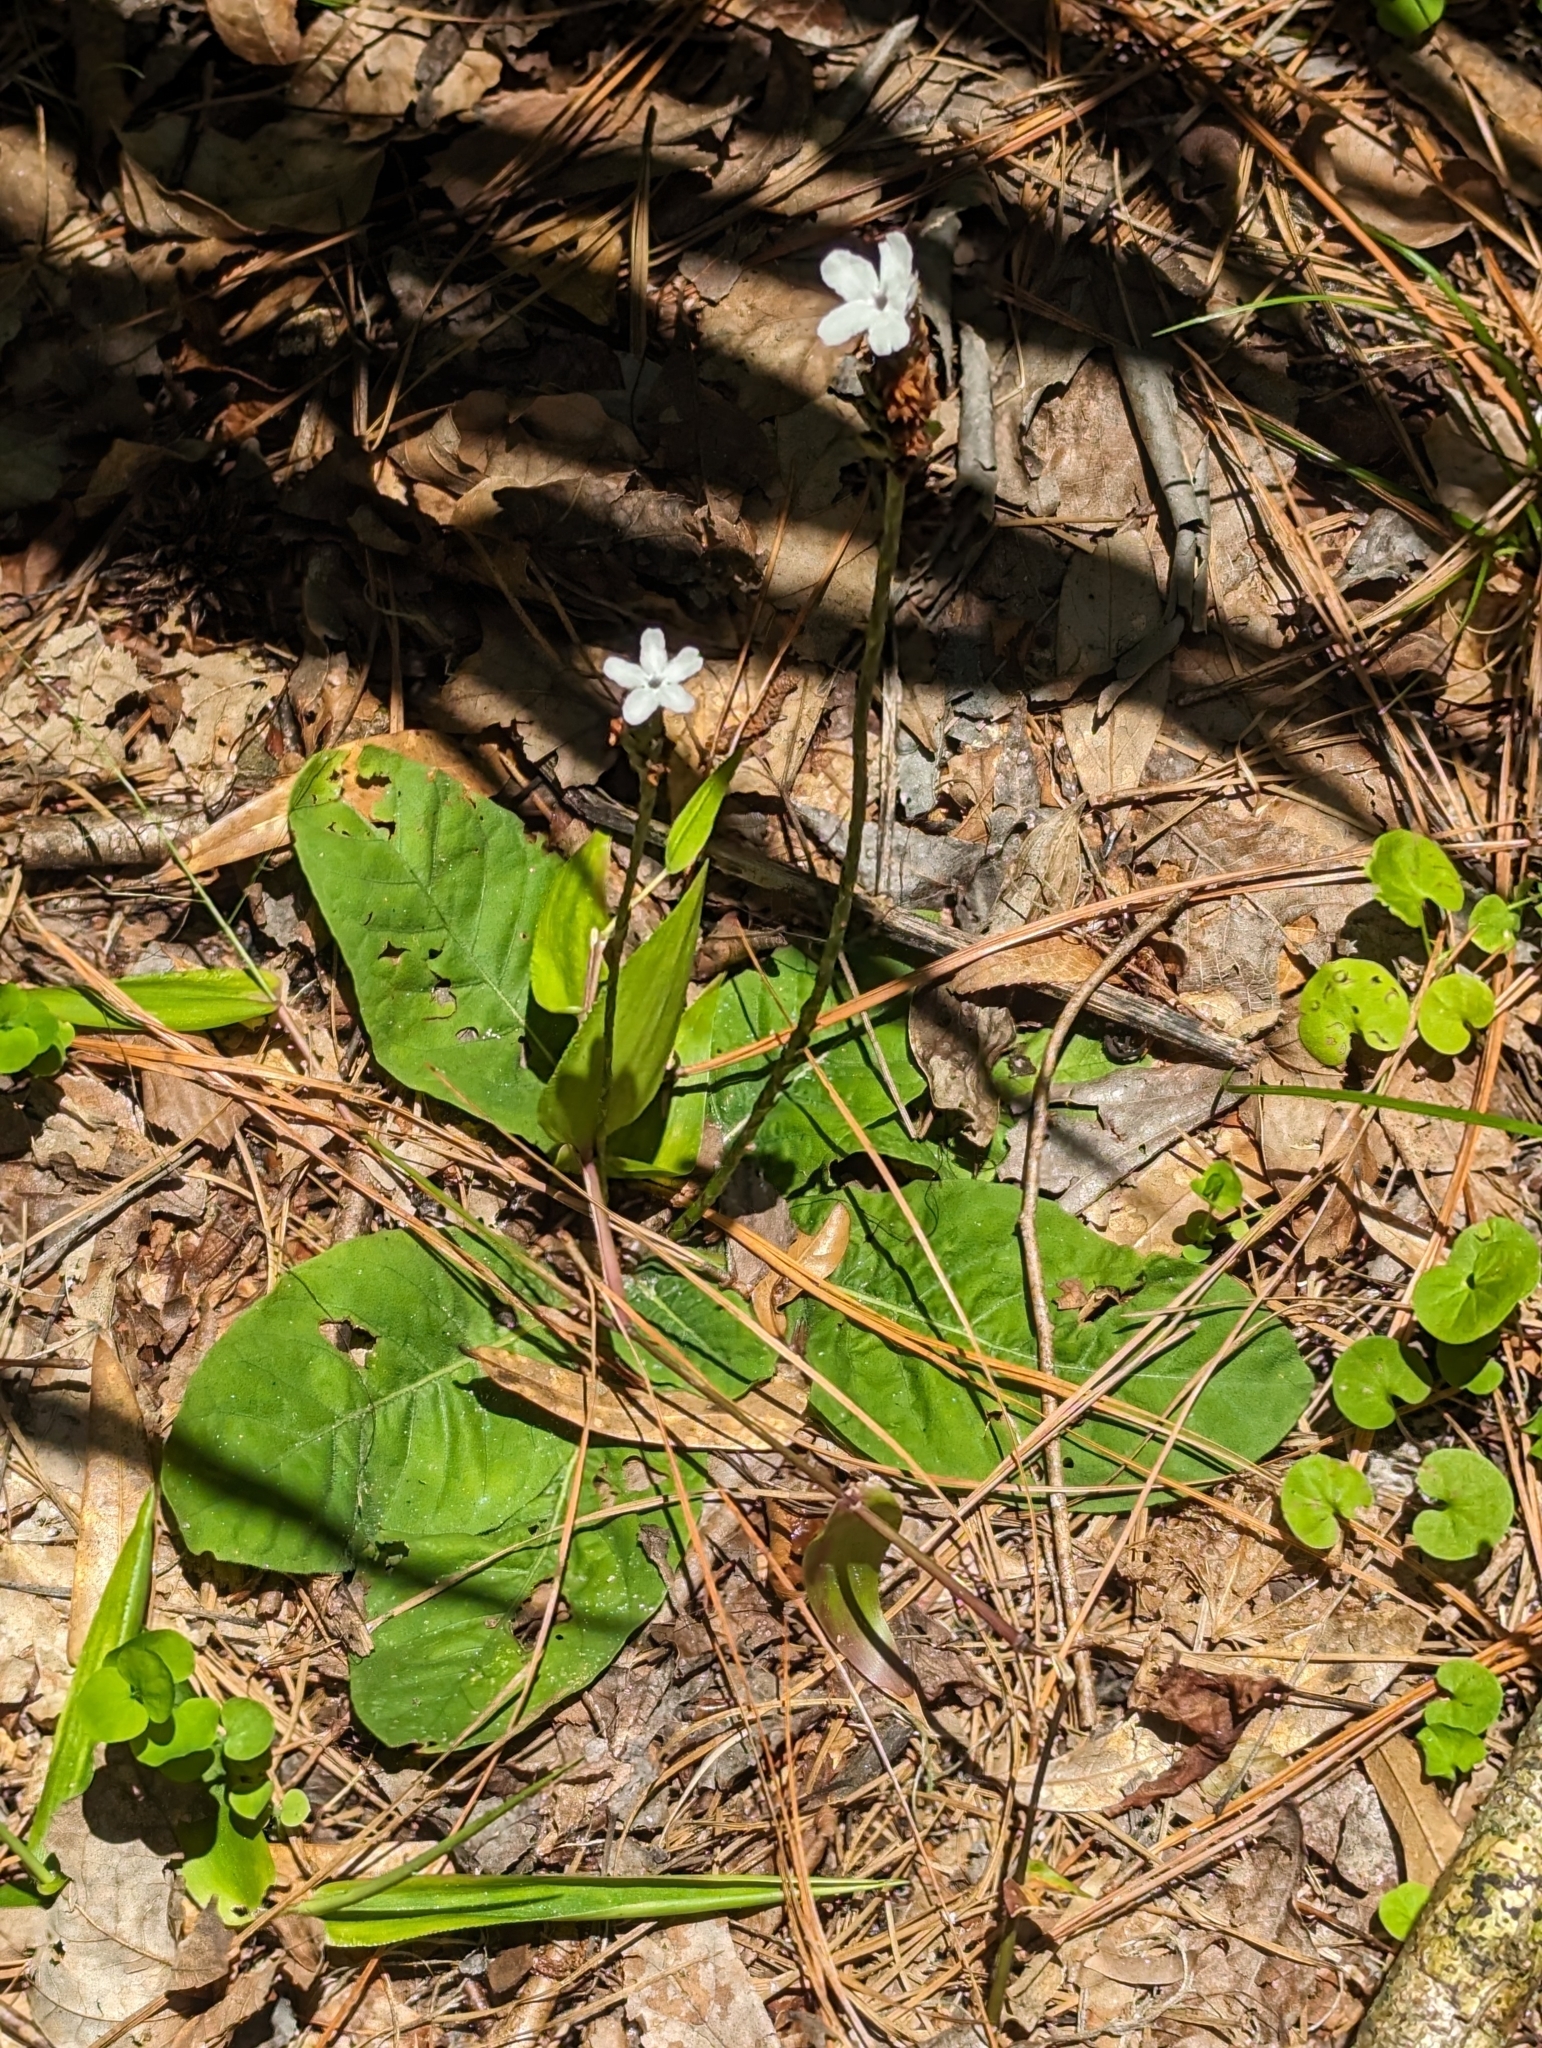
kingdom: Plantae
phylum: Tracheophyta
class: Magnoliopsida
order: Lamiales
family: Acanthaceae
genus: Elytraria
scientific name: Elytraria caroliniensis
